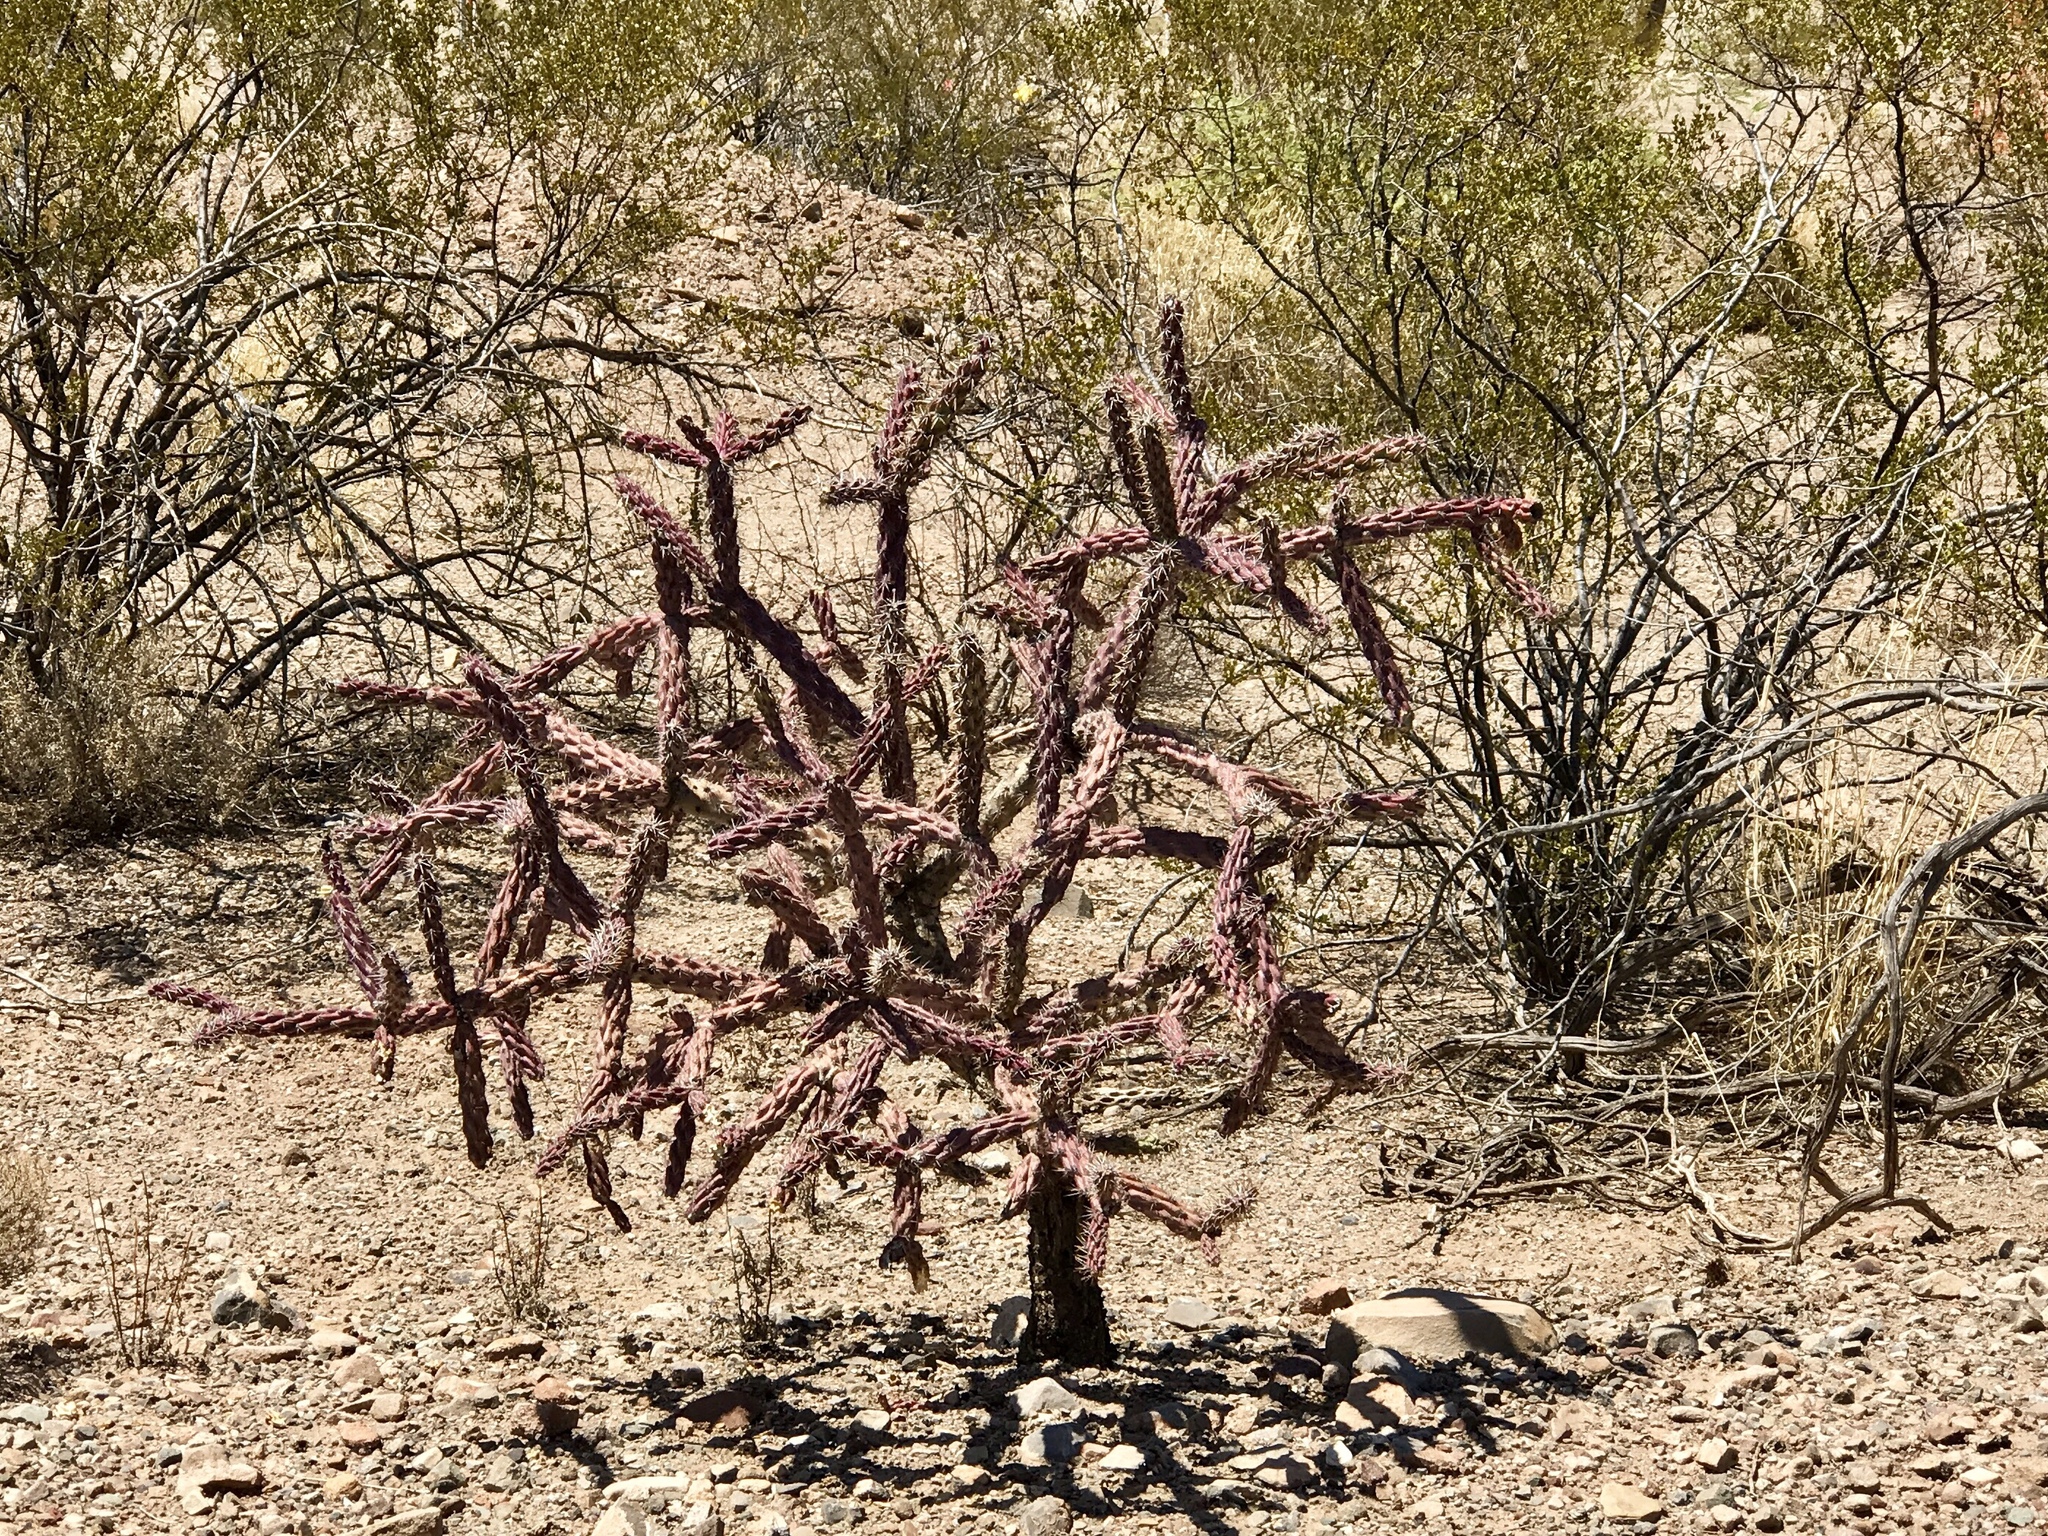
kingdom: Plantae
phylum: Tracheophyta
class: Magnoliopsida
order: Caryophyllales
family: Cactaceae
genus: Cylindropuntia
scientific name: Cylindropuntia thurberi
